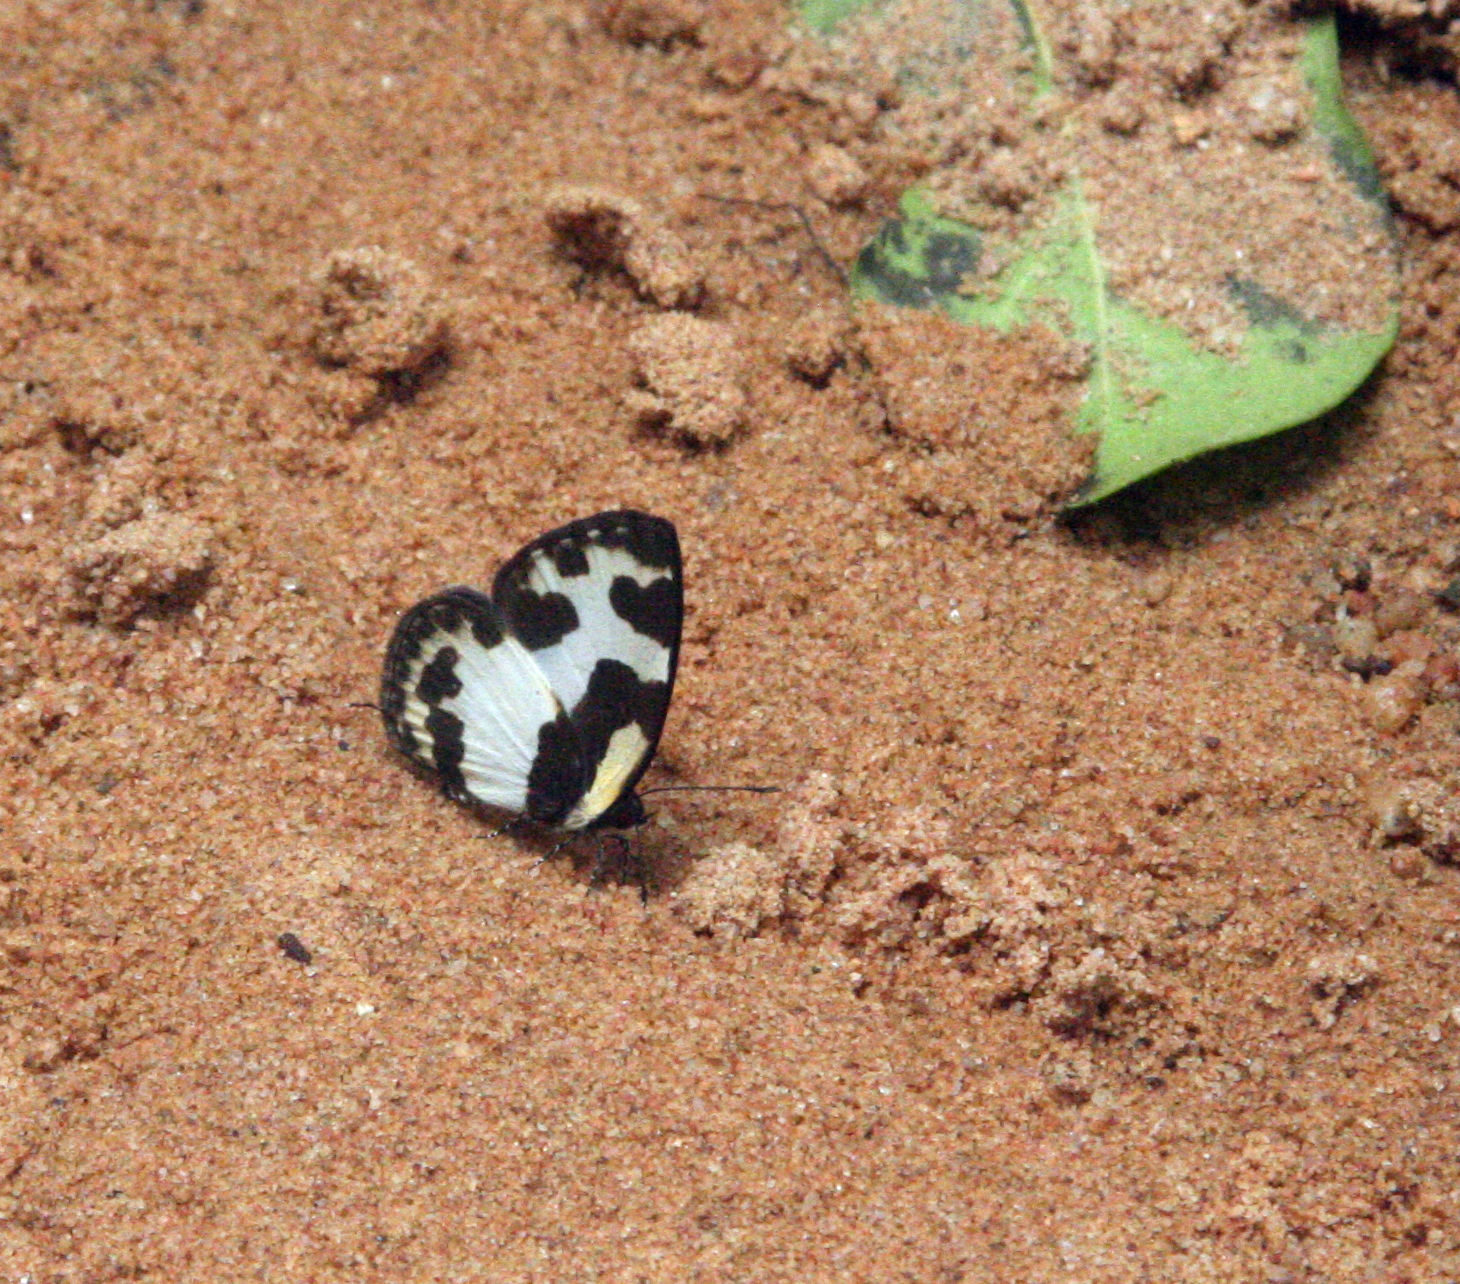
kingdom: Animalia
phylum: Arthropoda
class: Insecta
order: Lepidoptera
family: Lycaenidae
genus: Caleta
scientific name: Caleta elna
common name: Elbowed pierrot
